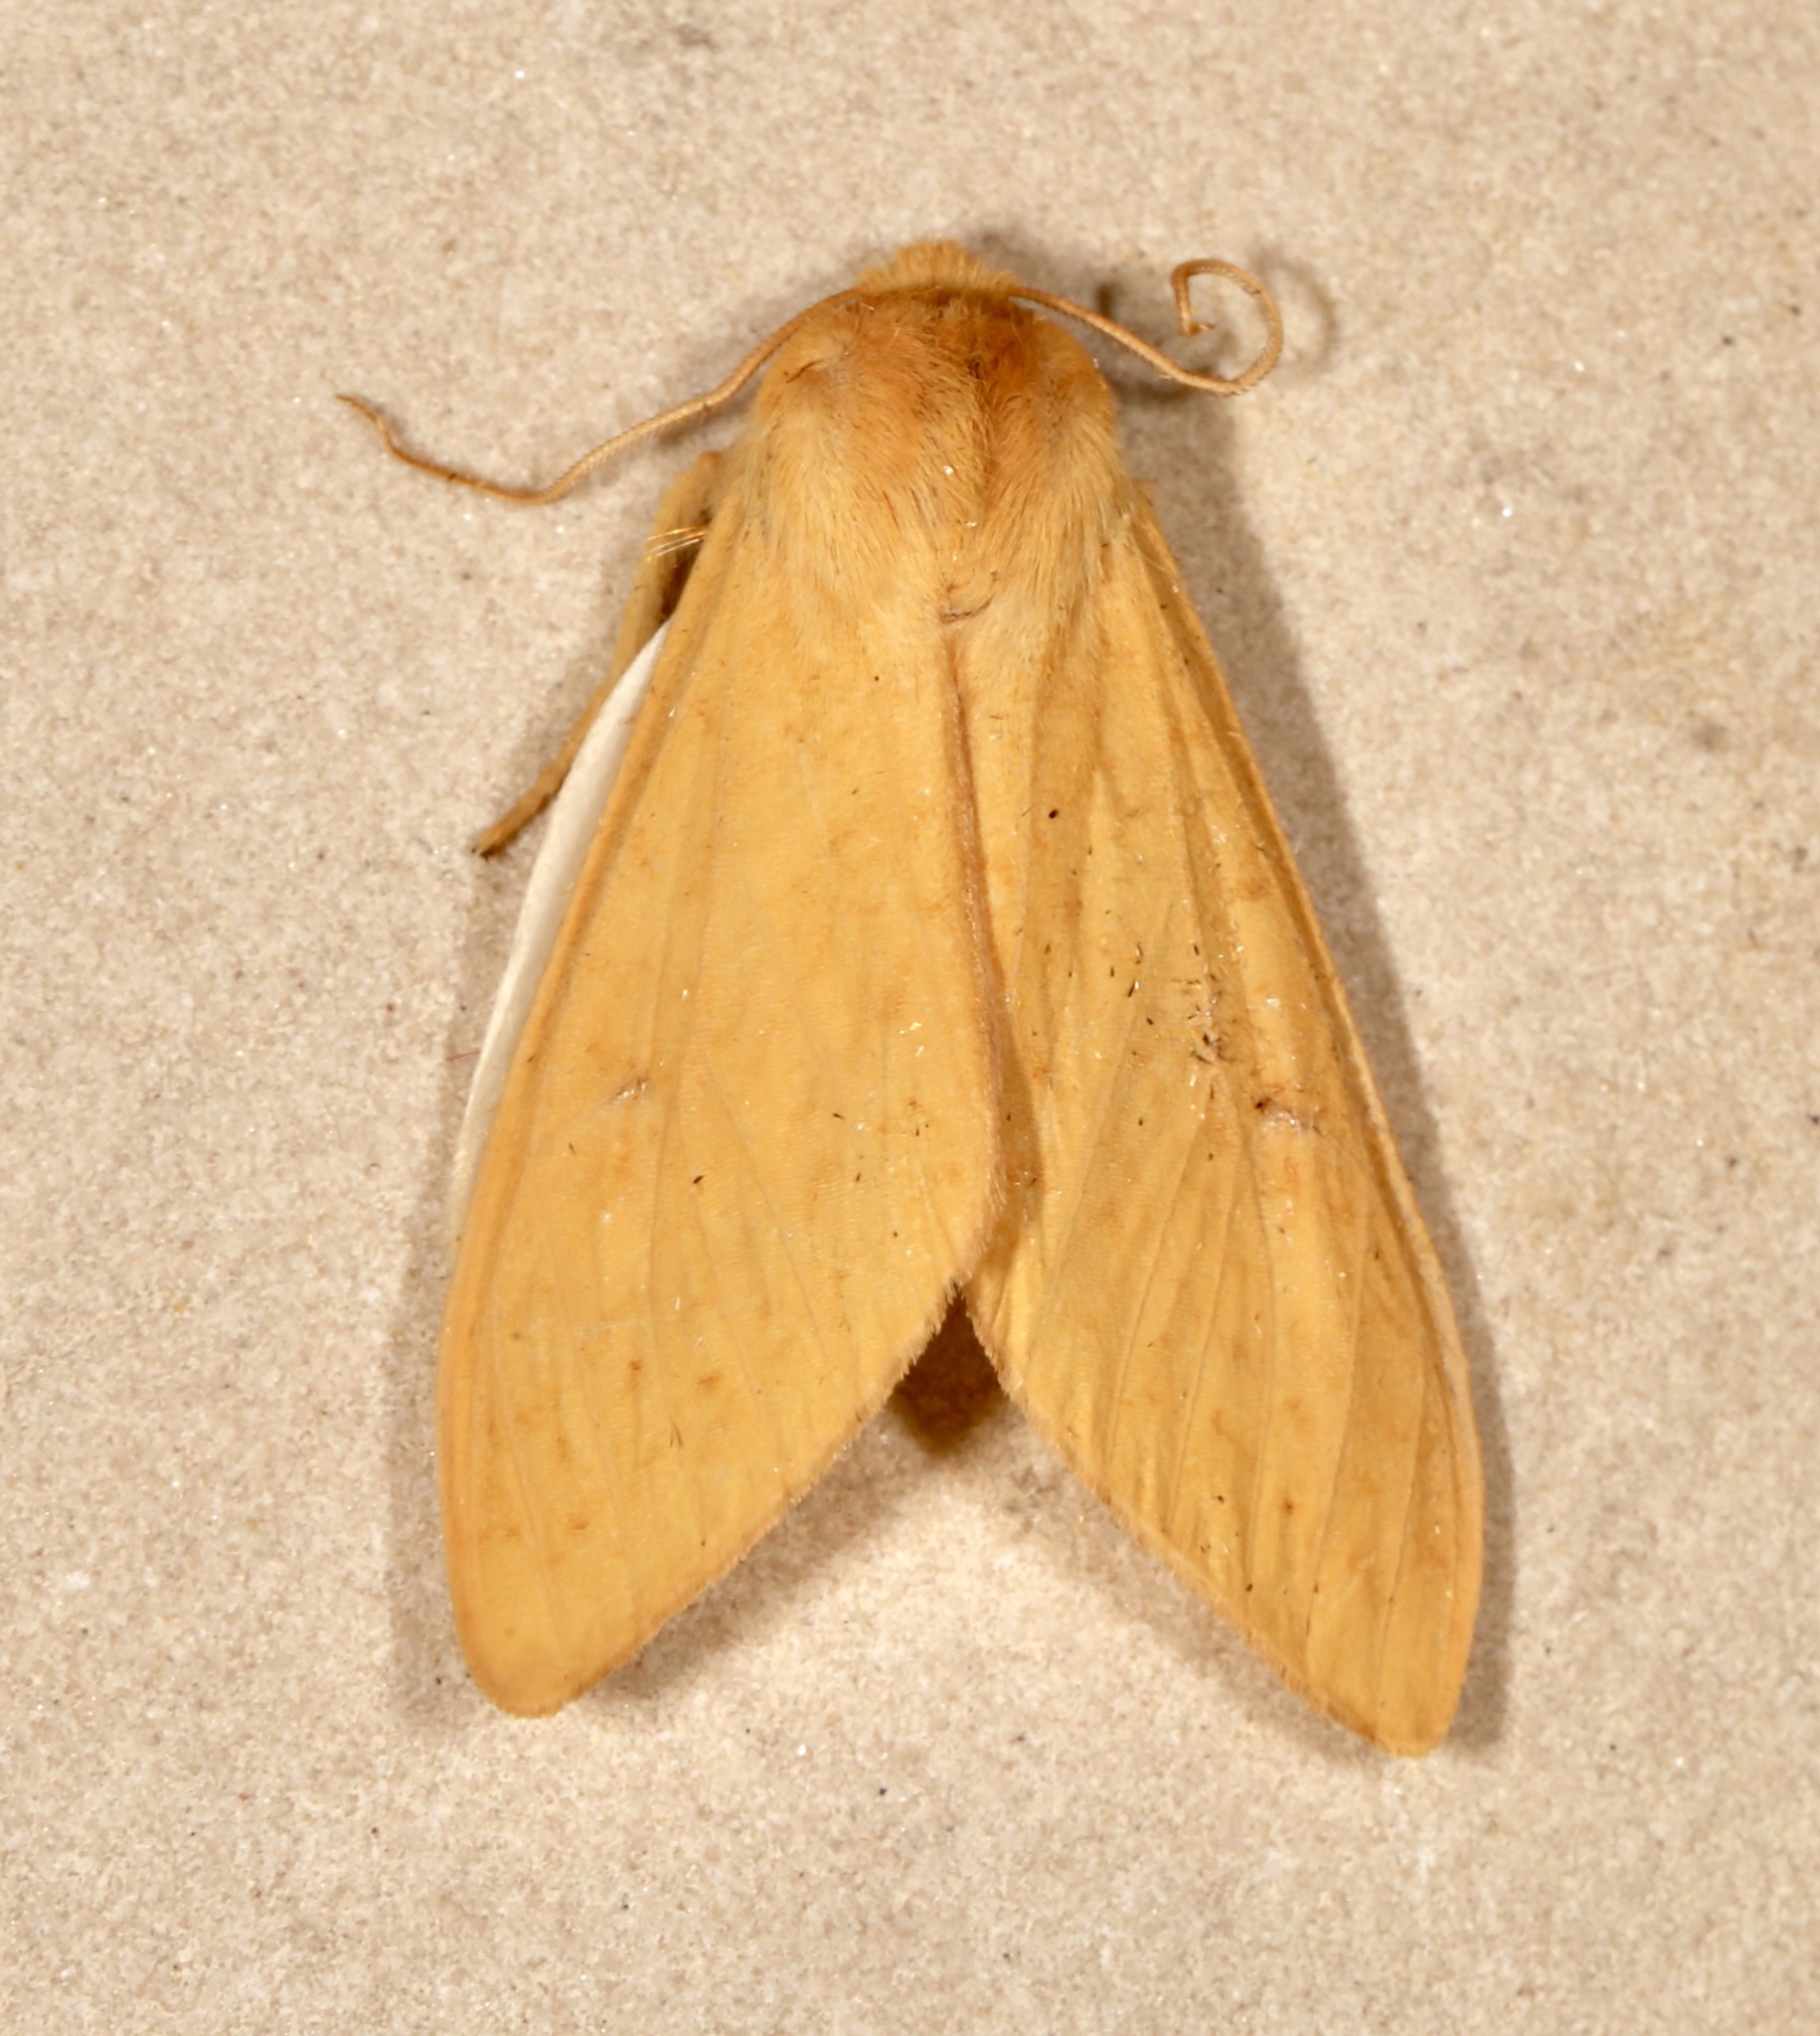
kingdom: Animalia
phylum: Arthropoda
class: Insecta
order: Lepidoptera
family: Erebidae
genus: Lophocampa
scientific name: Lophocampa pura
